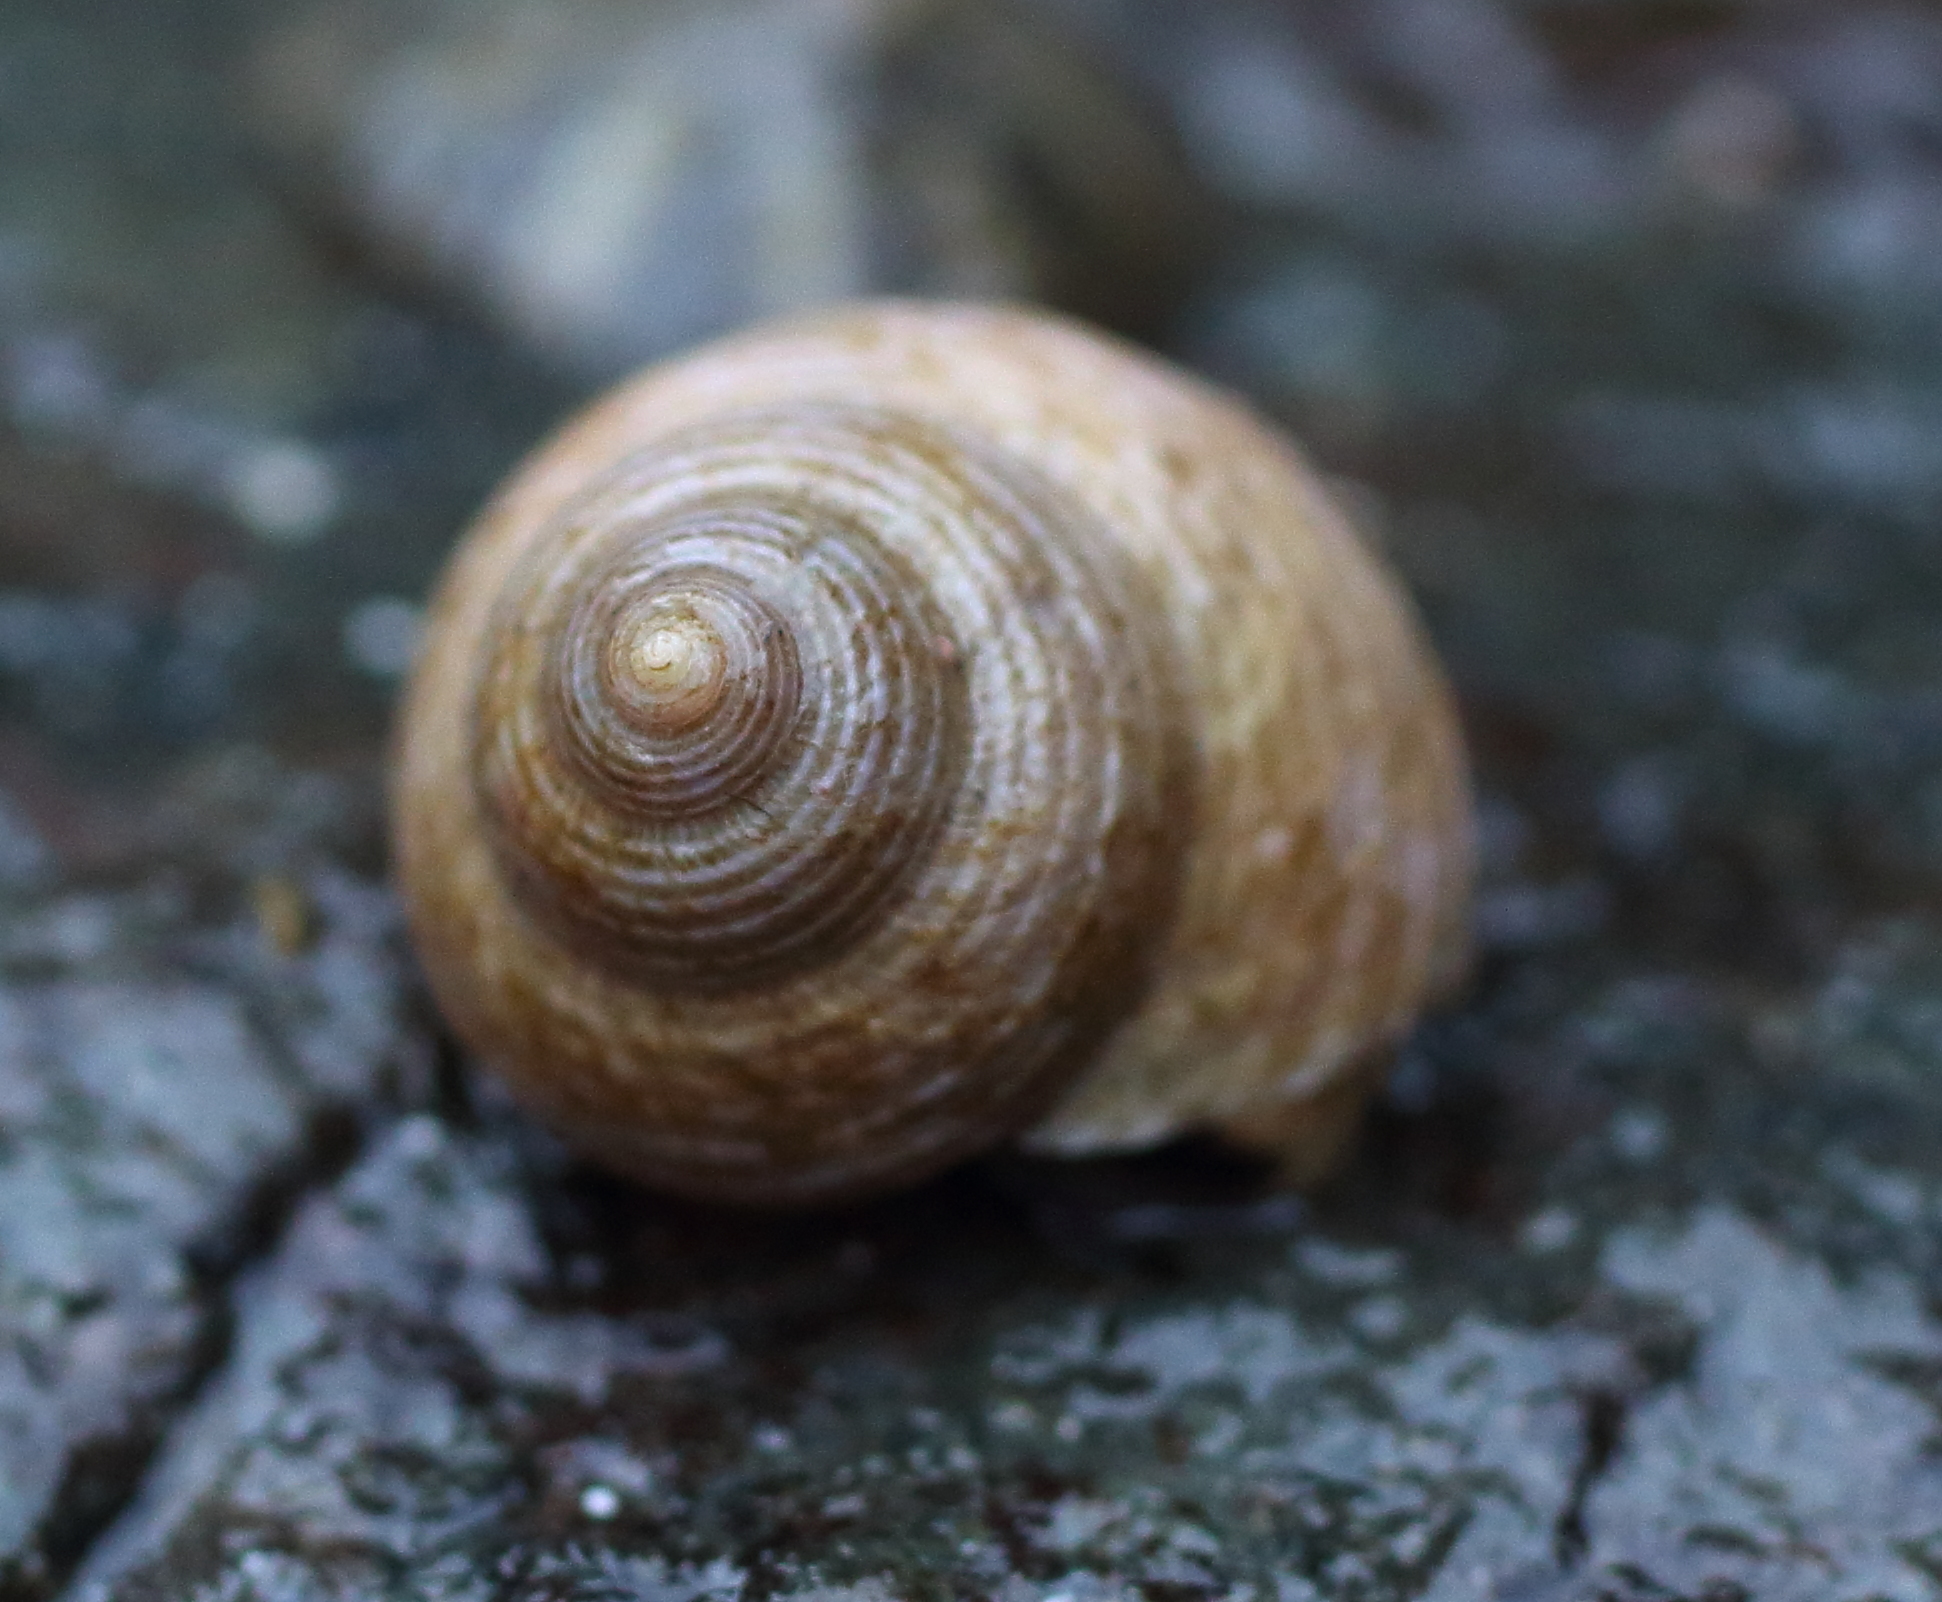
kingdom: Animalia
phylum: Mollusca
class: Gastropoda
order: Trochida
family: Margaritidae
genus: Margarites
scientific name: Margarites pupillus
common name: Puppet margarite
